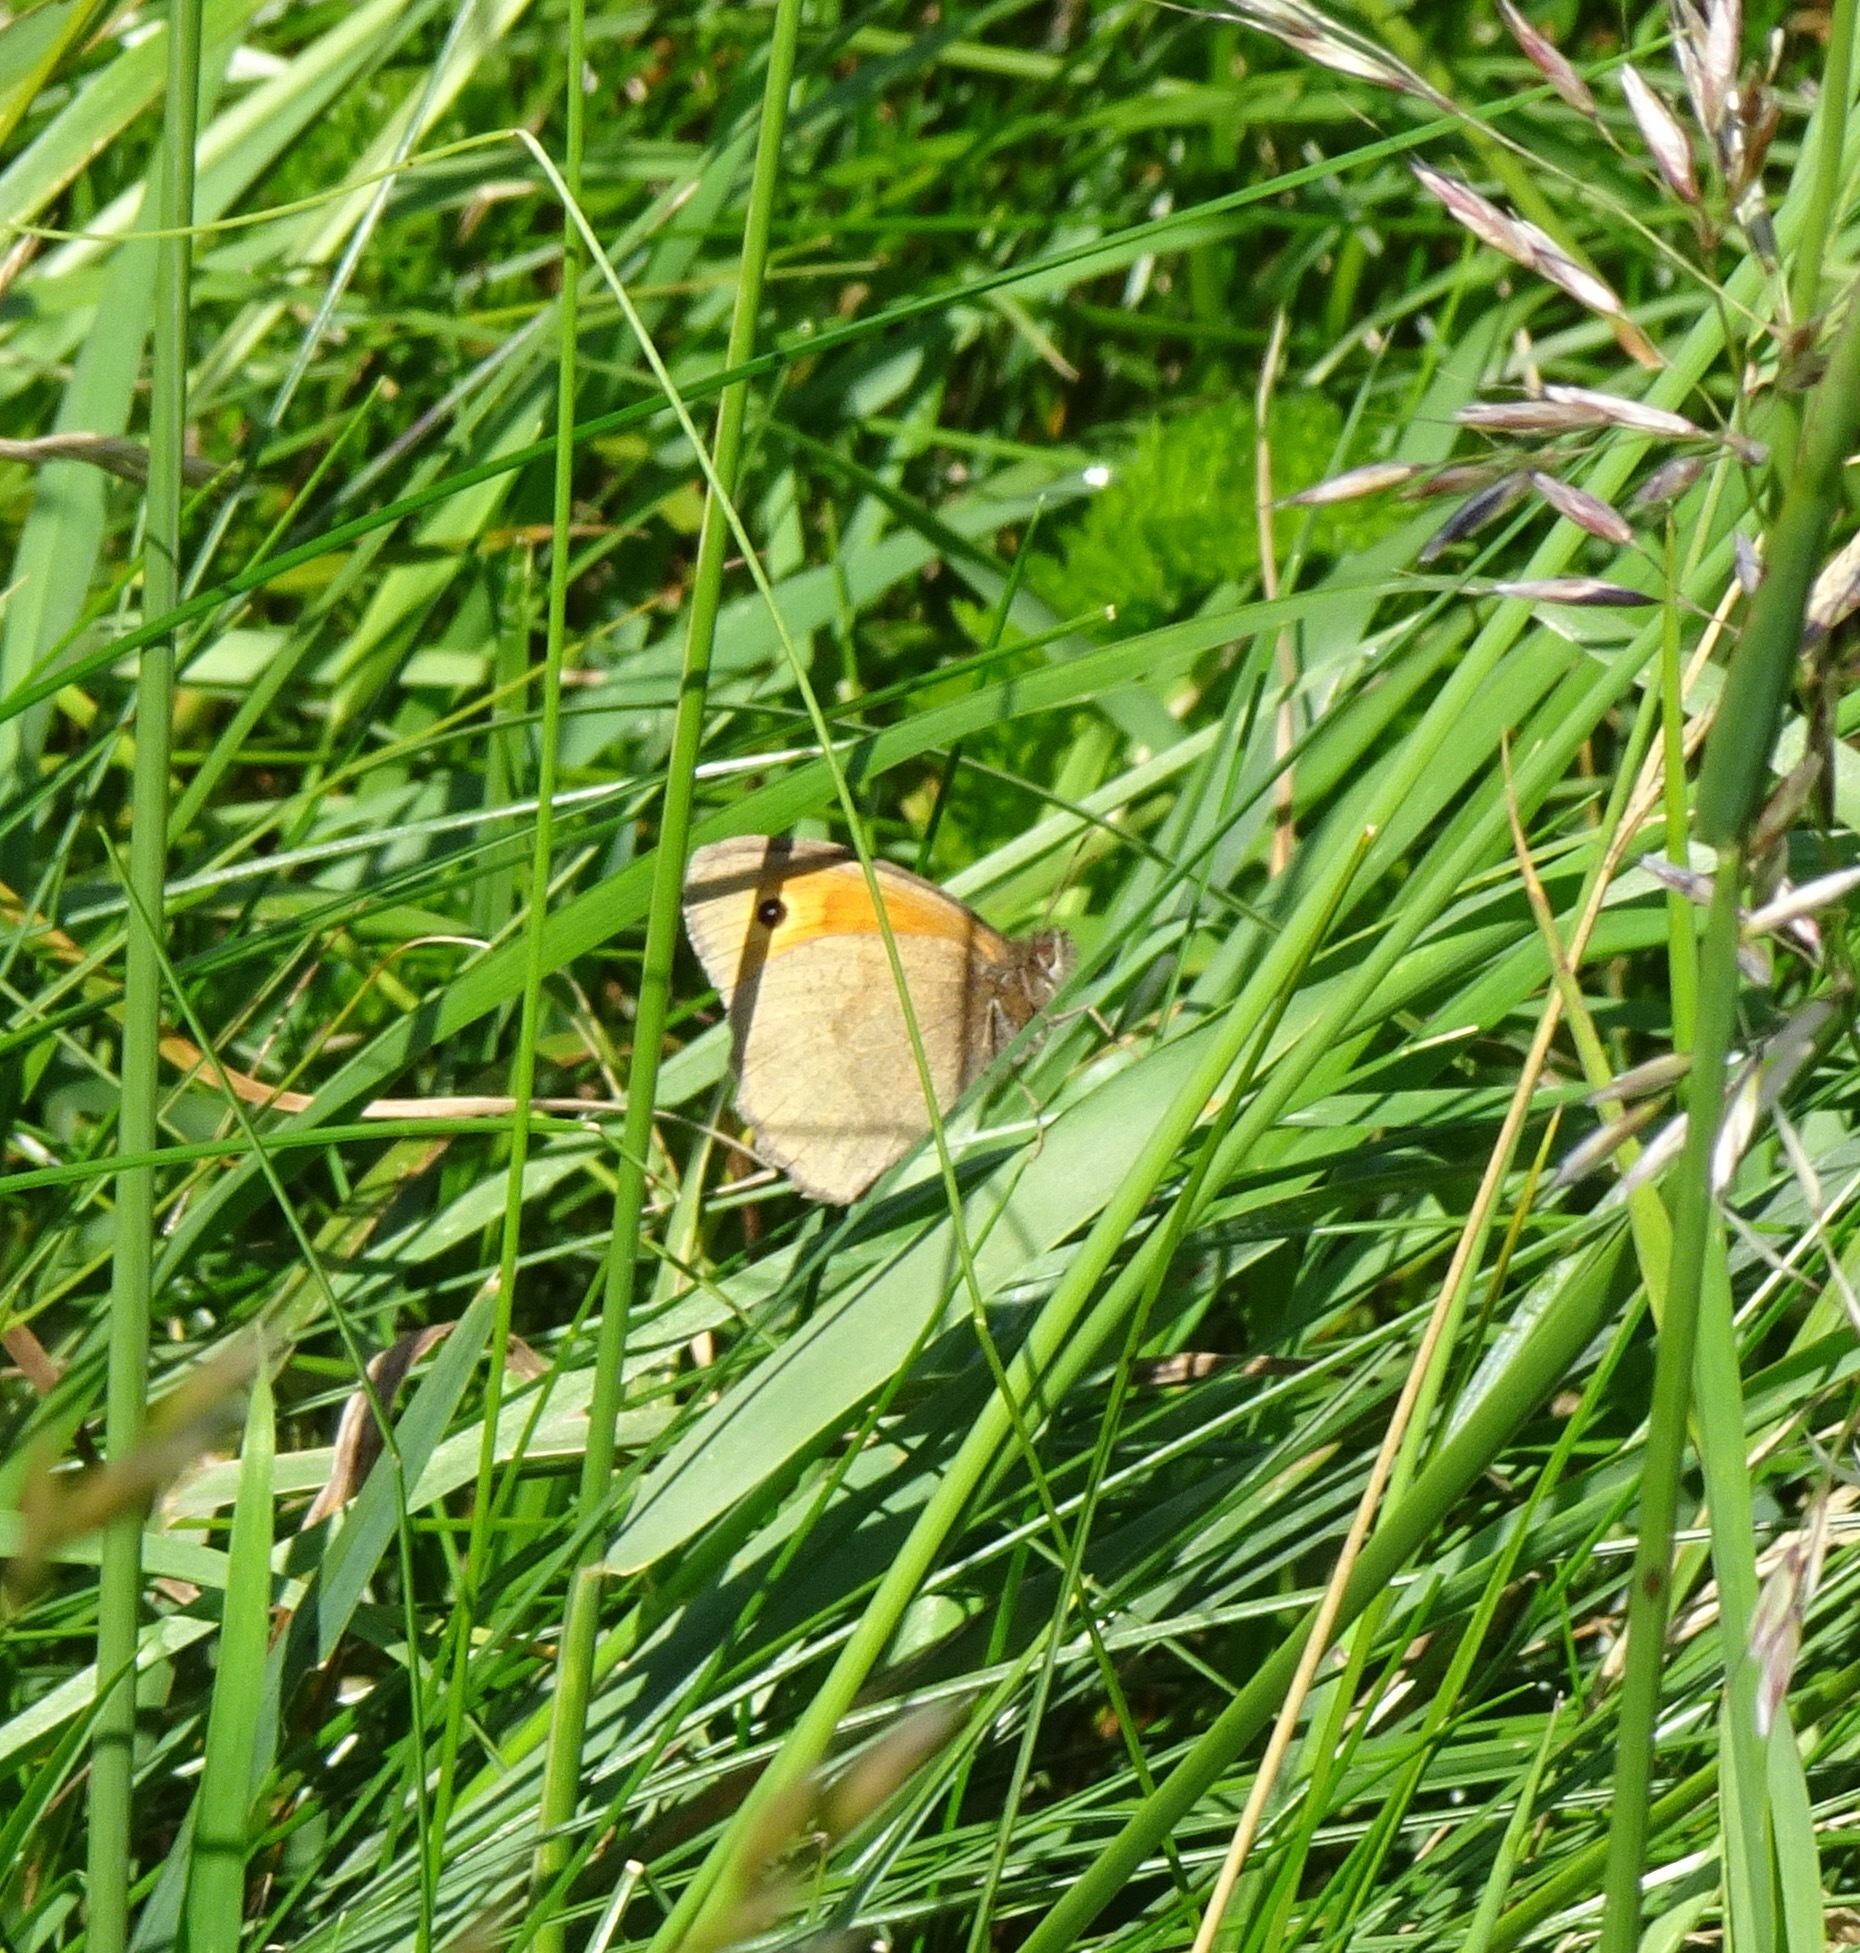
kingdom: Animalia
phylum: Arthropoda
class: Insecta
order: Lepidoptera
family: Nymphalidae
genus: Maniola
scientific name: Maniola jurtina
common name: Meadow brown
